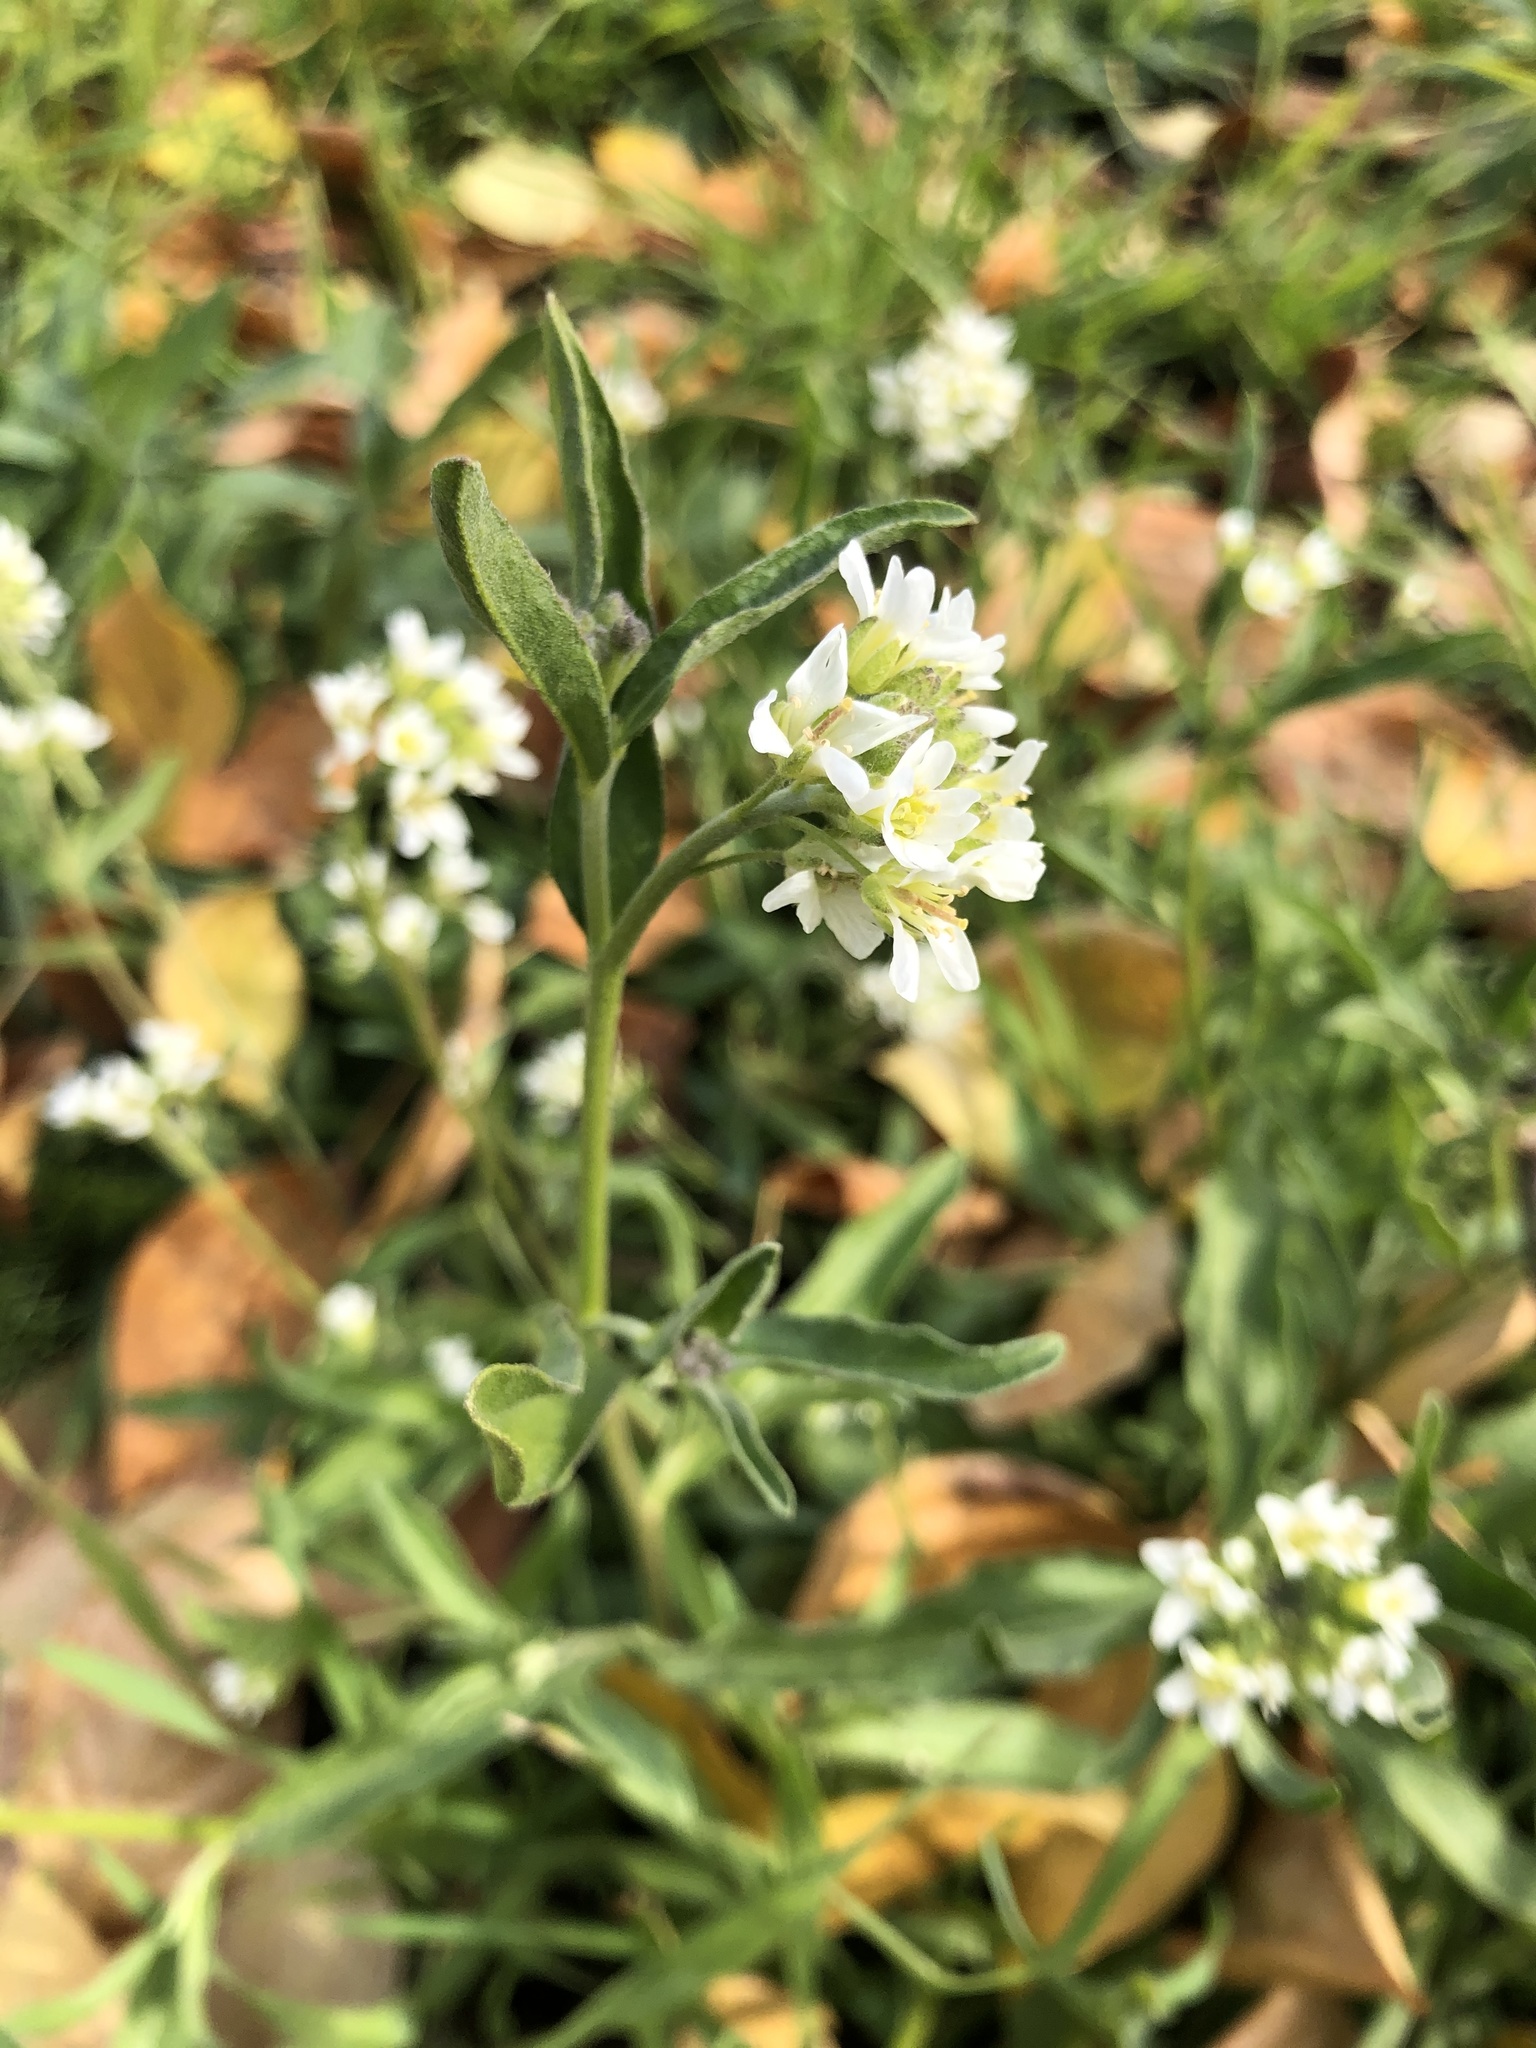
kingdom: Plantae
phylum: Tracheophyta
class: Magnoliopsida
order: Brassicales
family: Brassicaceae
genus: Berteroa
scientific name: Berteroa incana
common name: Hoary alison
